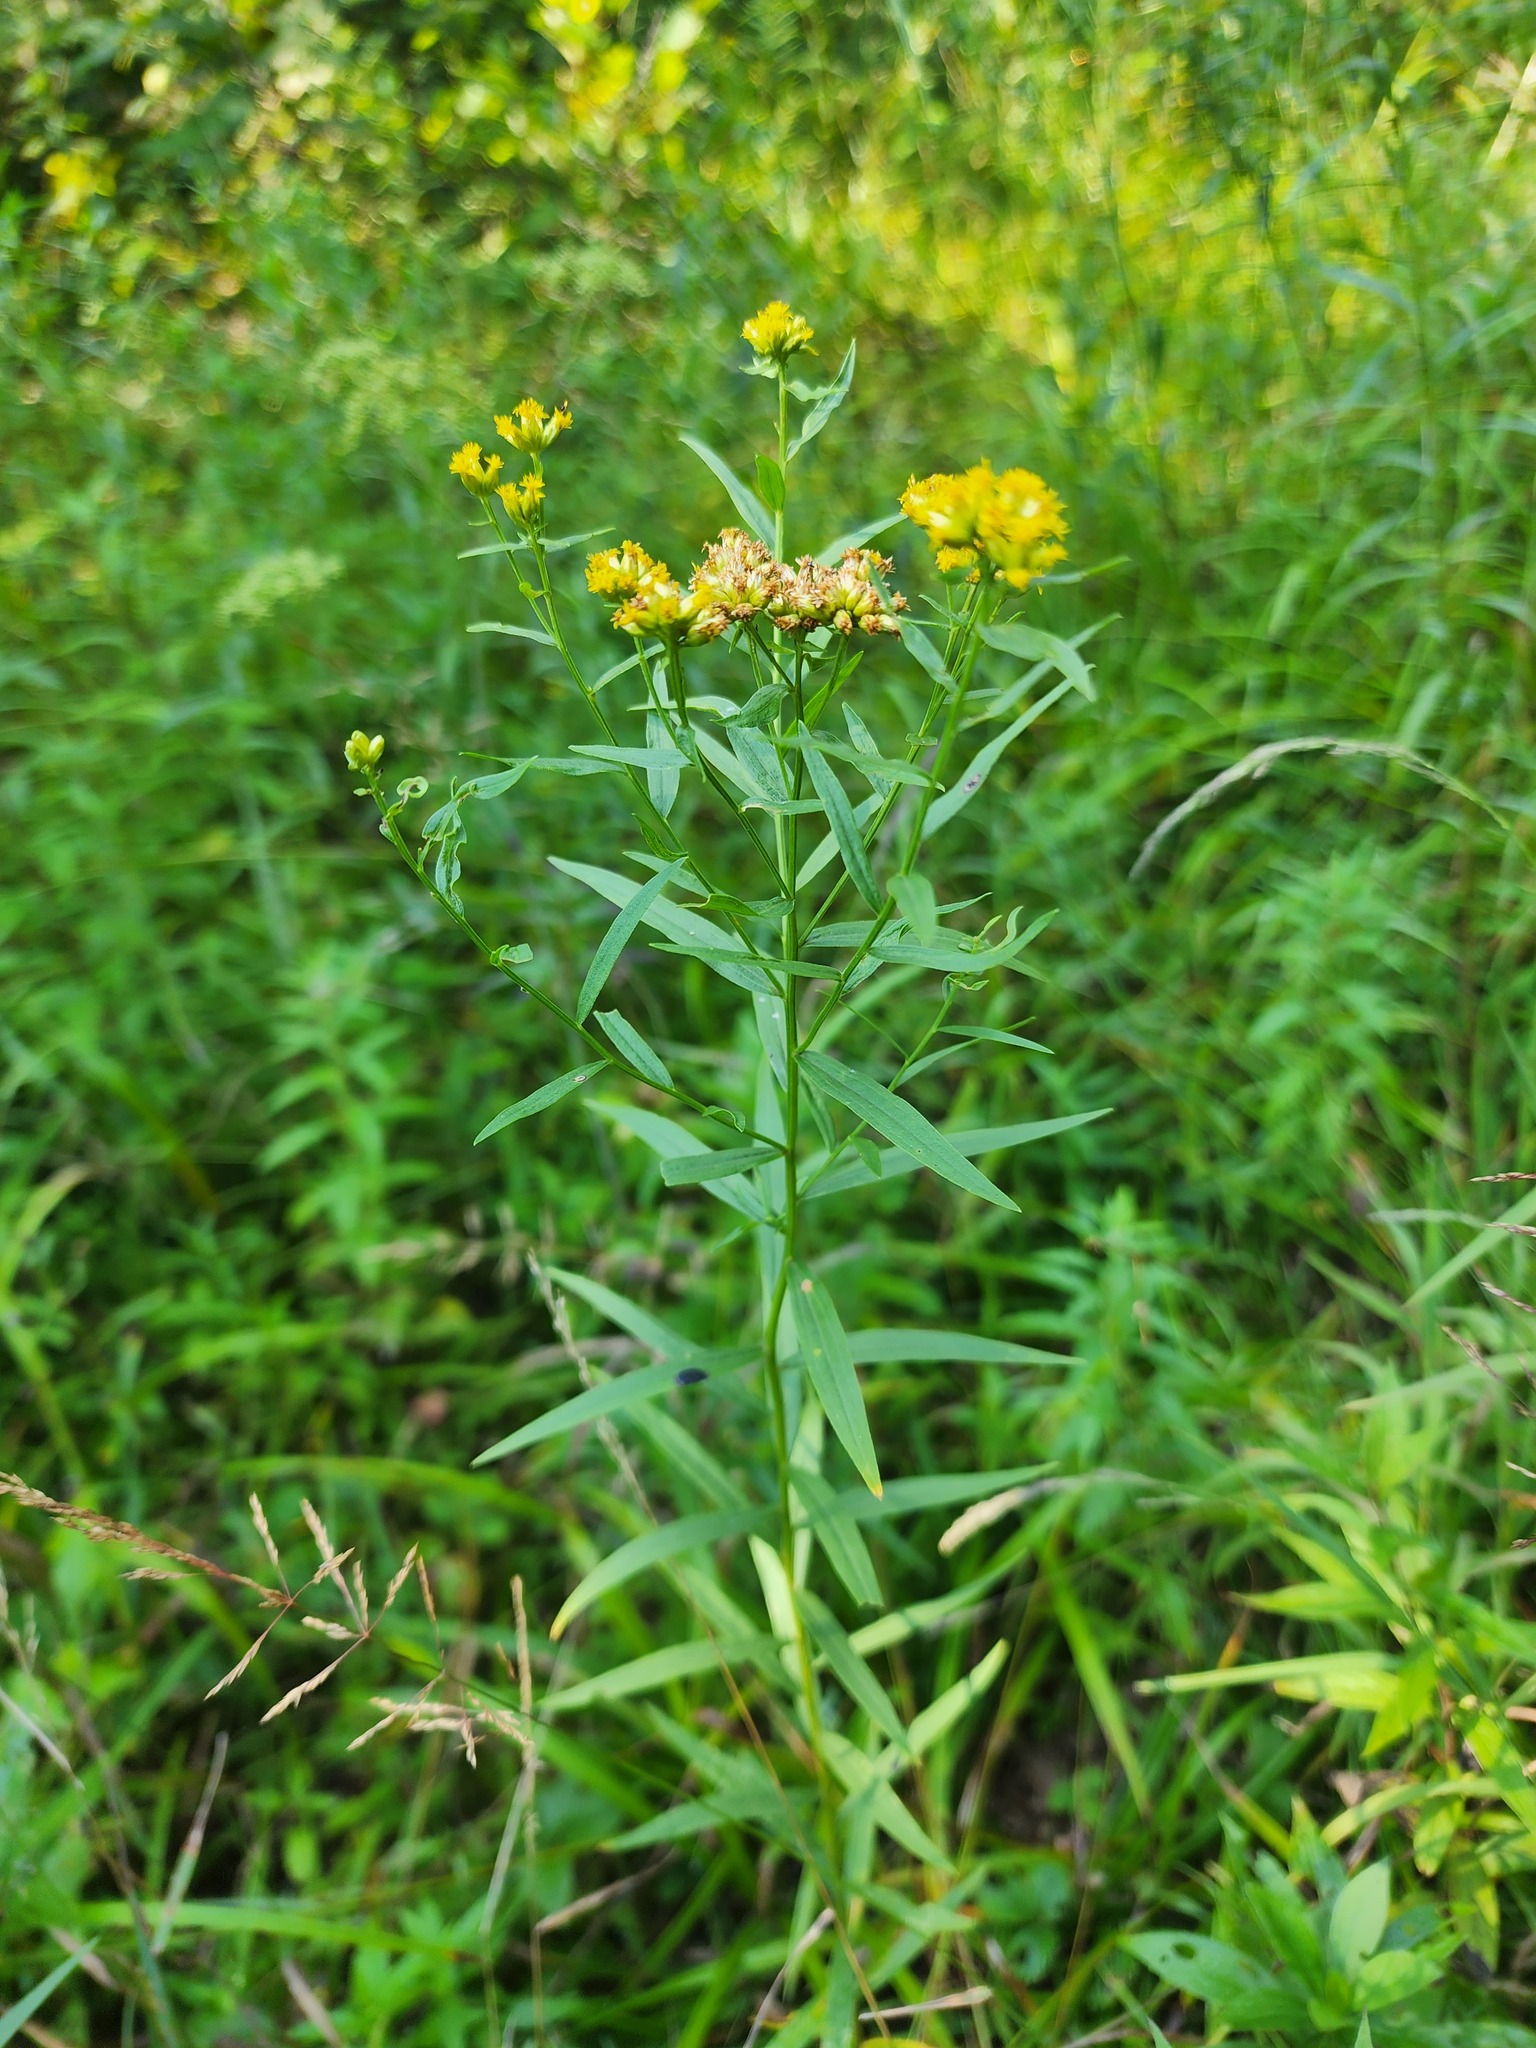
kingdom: Plantae
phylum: Tracheophyta
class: Magnoliopsida
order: Asterales
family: Asteraceae
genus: Euthamia
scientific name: Euthamia graminifolia
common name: Common goldentop
